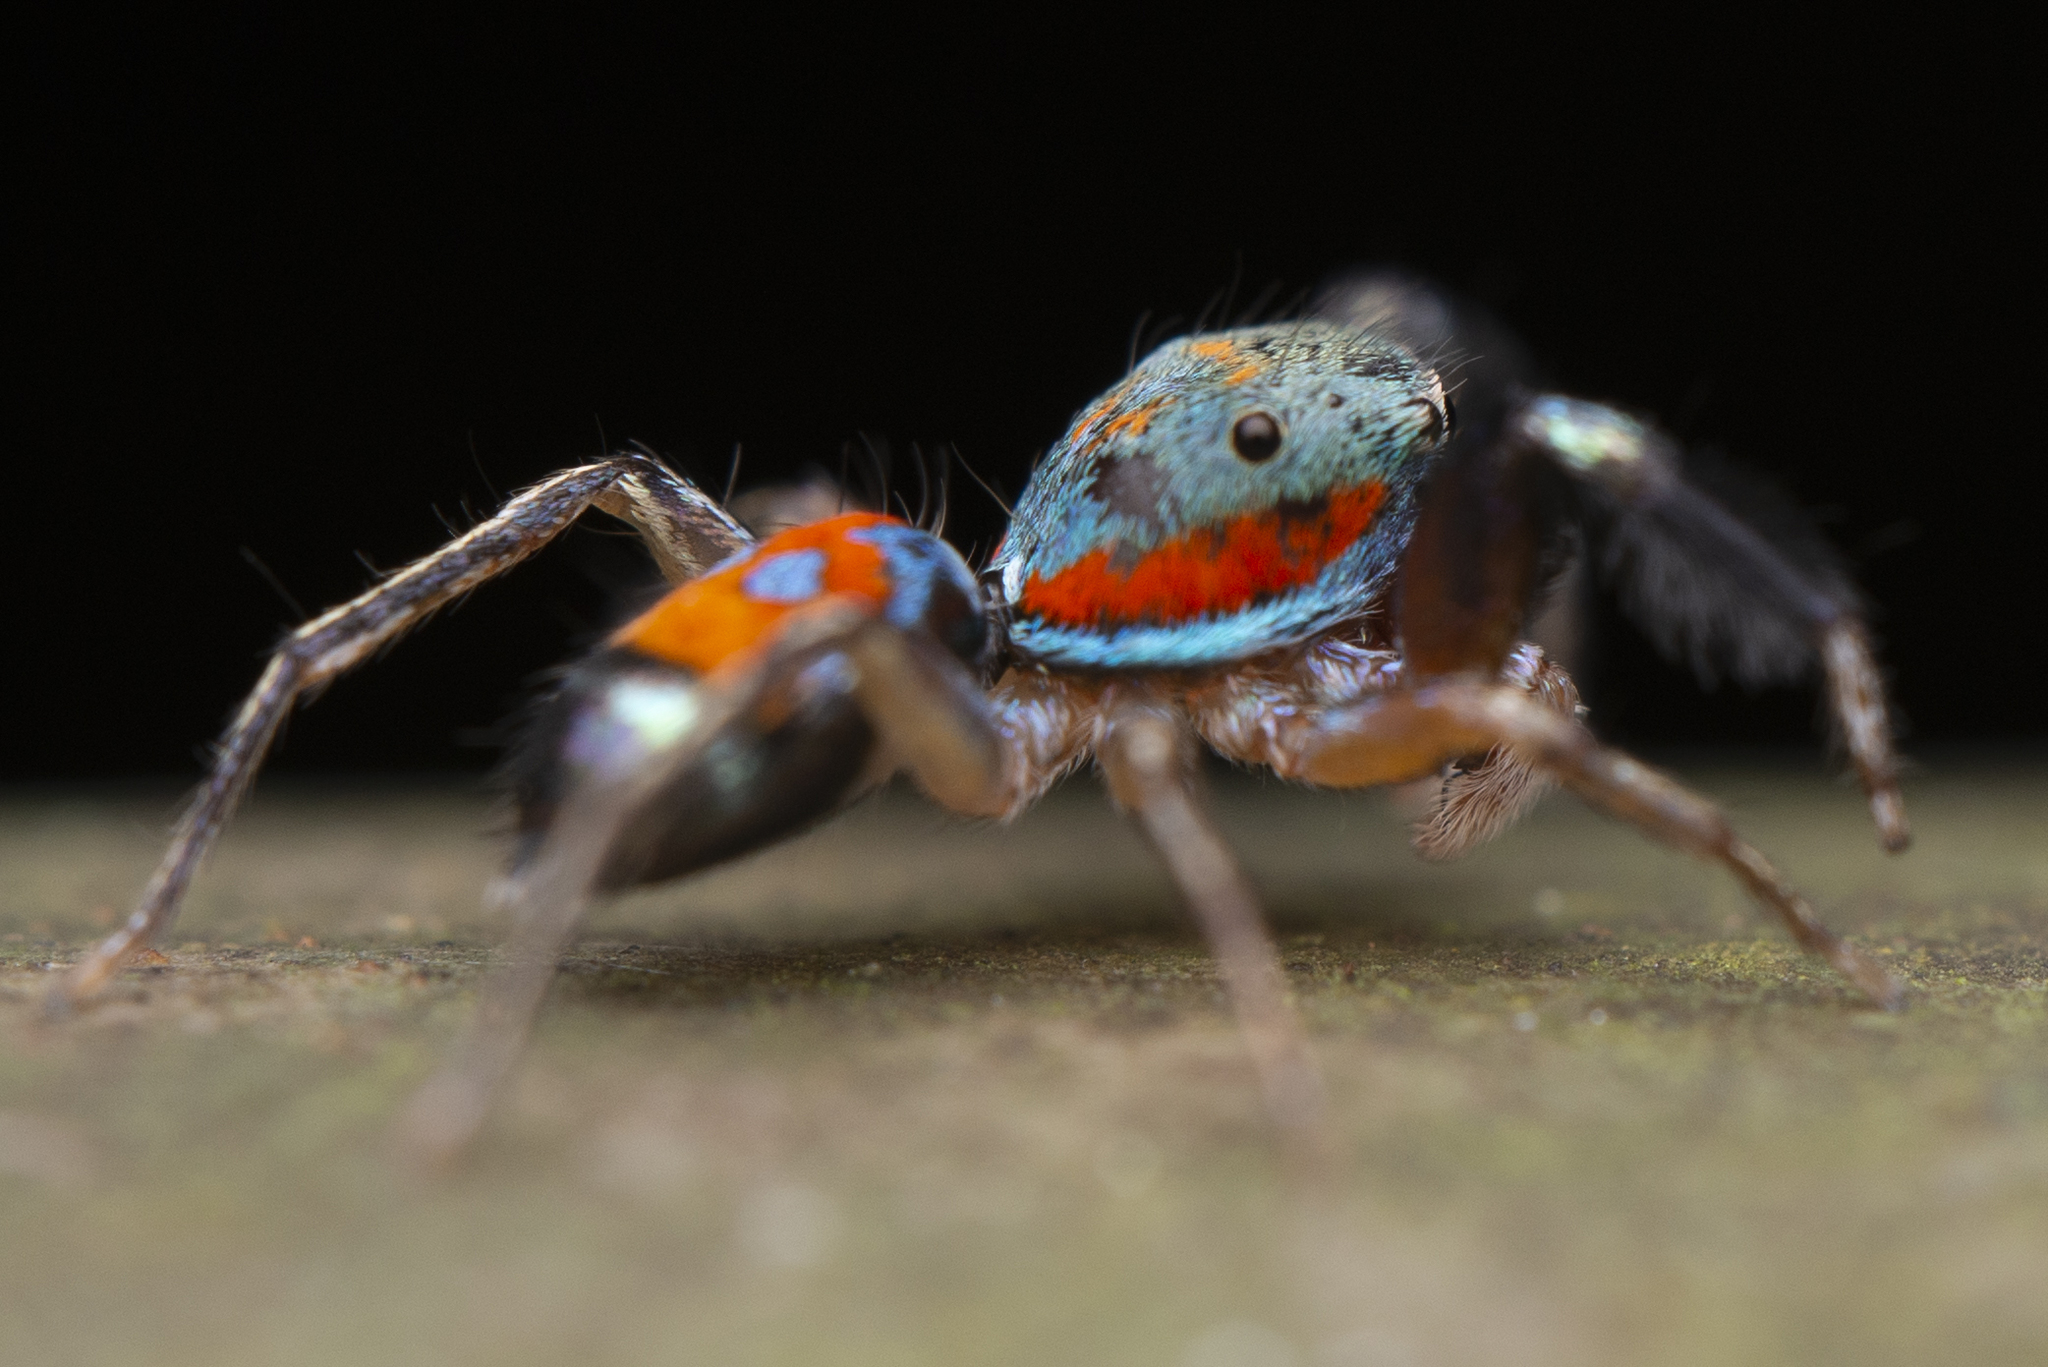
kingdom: Animalia
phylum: Arthropoda
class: Arachnida
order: Araneae
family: Salticidae
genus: Siler
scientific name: Siler collingwoodi
